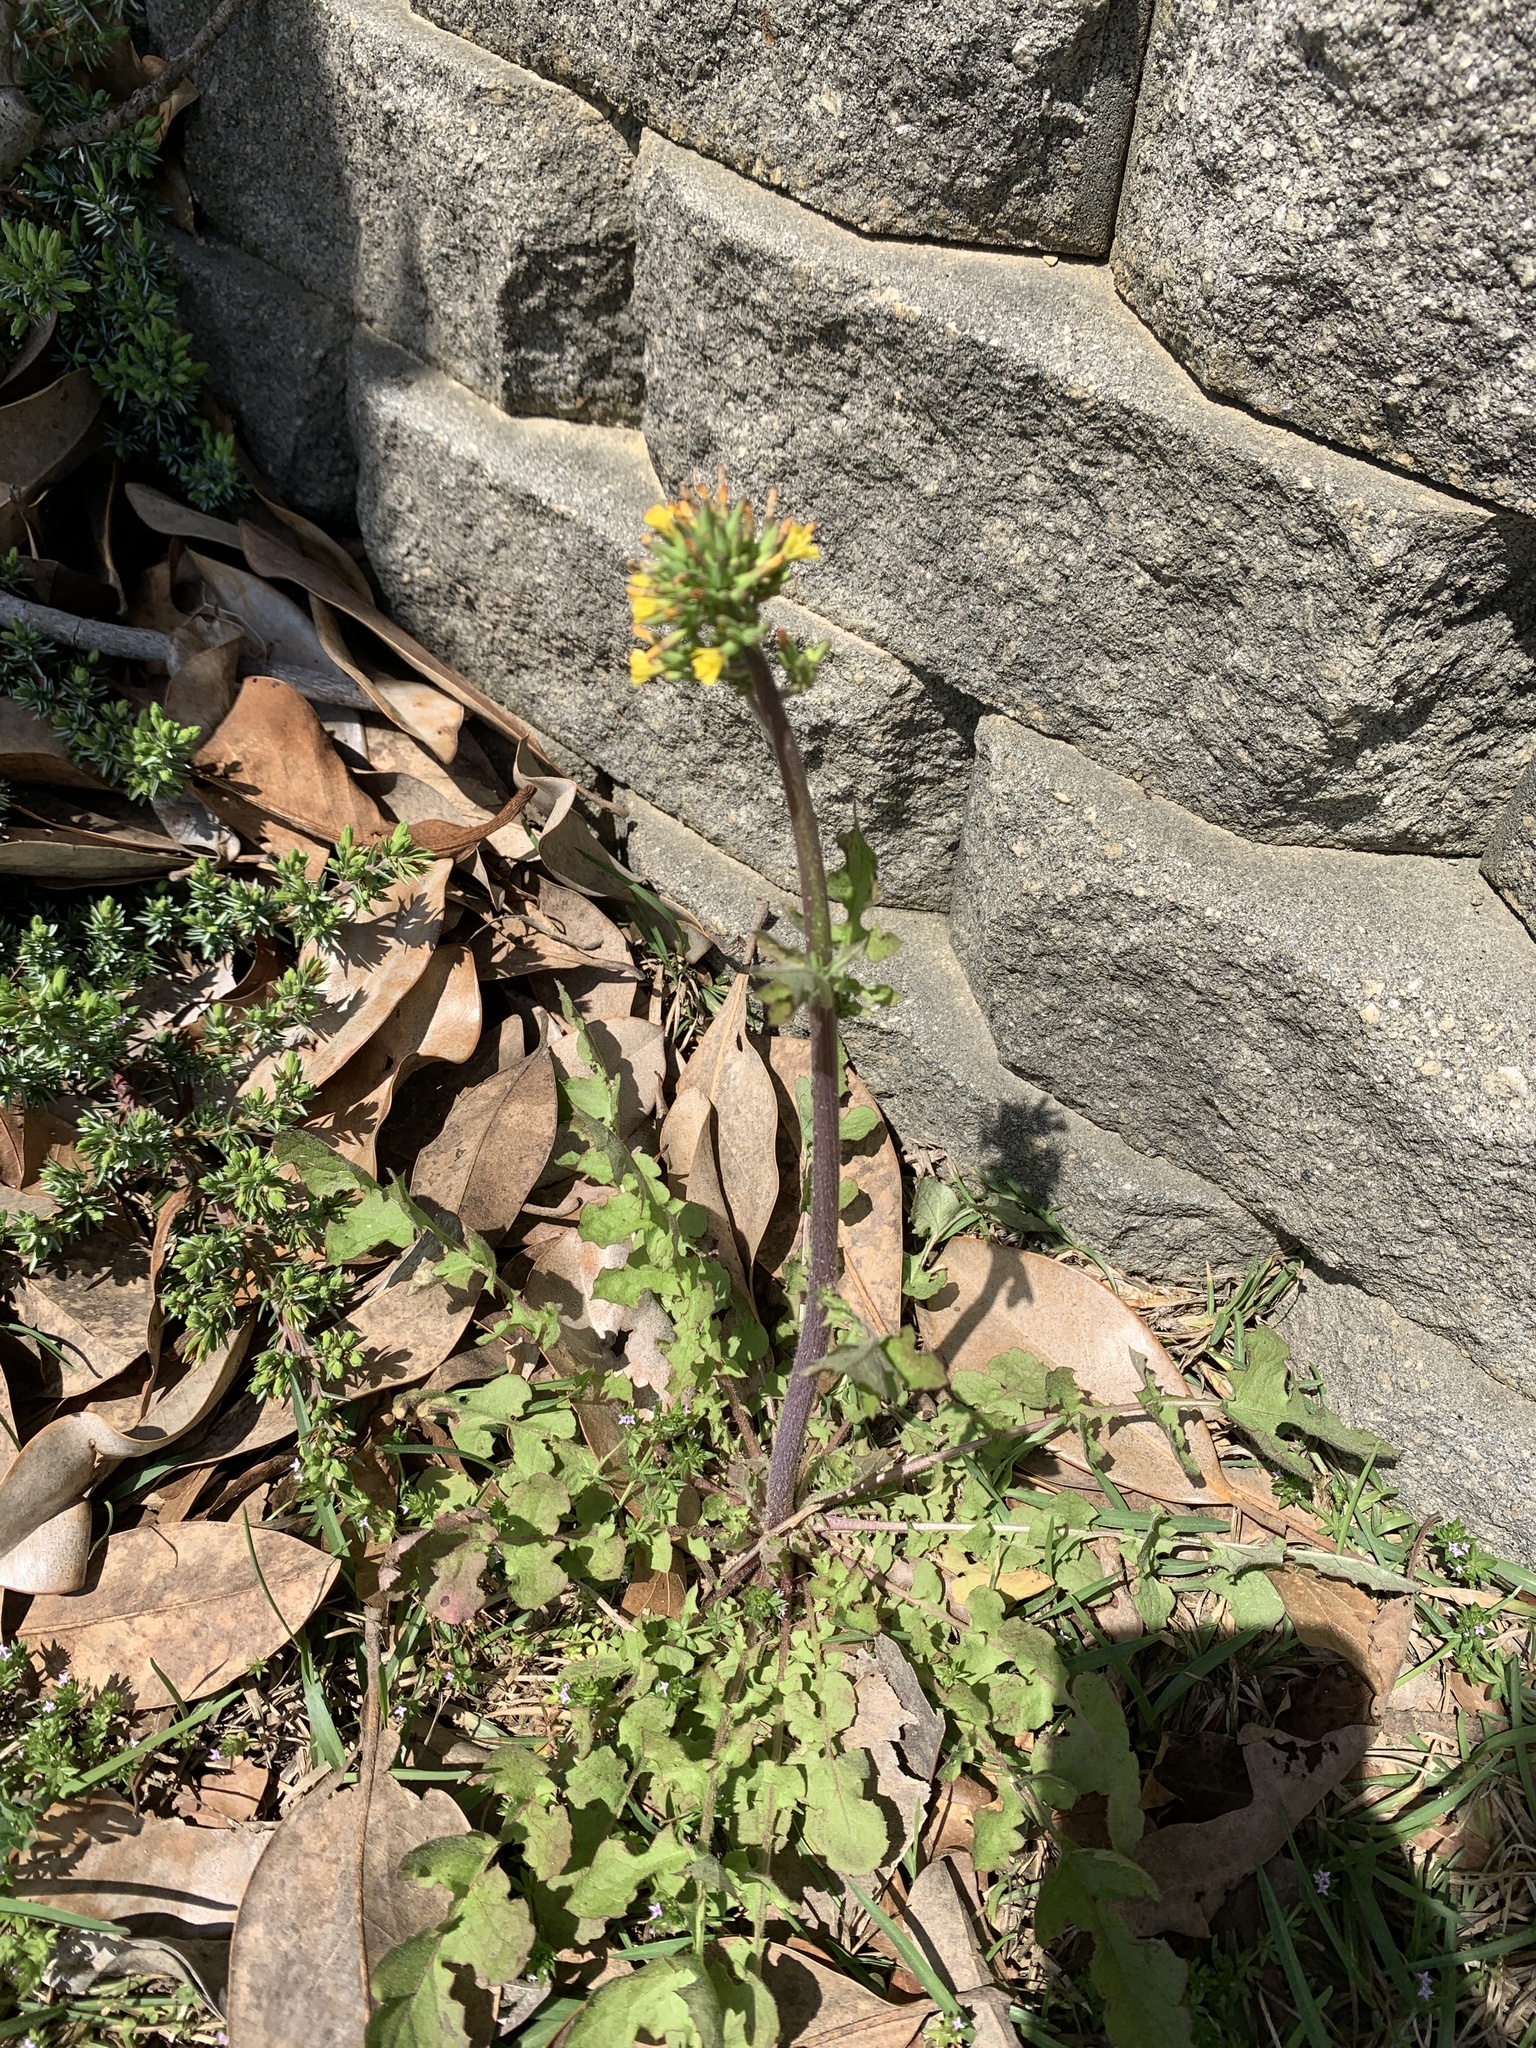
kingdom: Plantae
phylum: Tracheophyta
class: Magnoliopsida
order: Asterales
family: Asteraceae
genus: Youngia
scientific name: Youngia japonica
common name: Oriental false hawksbeard
